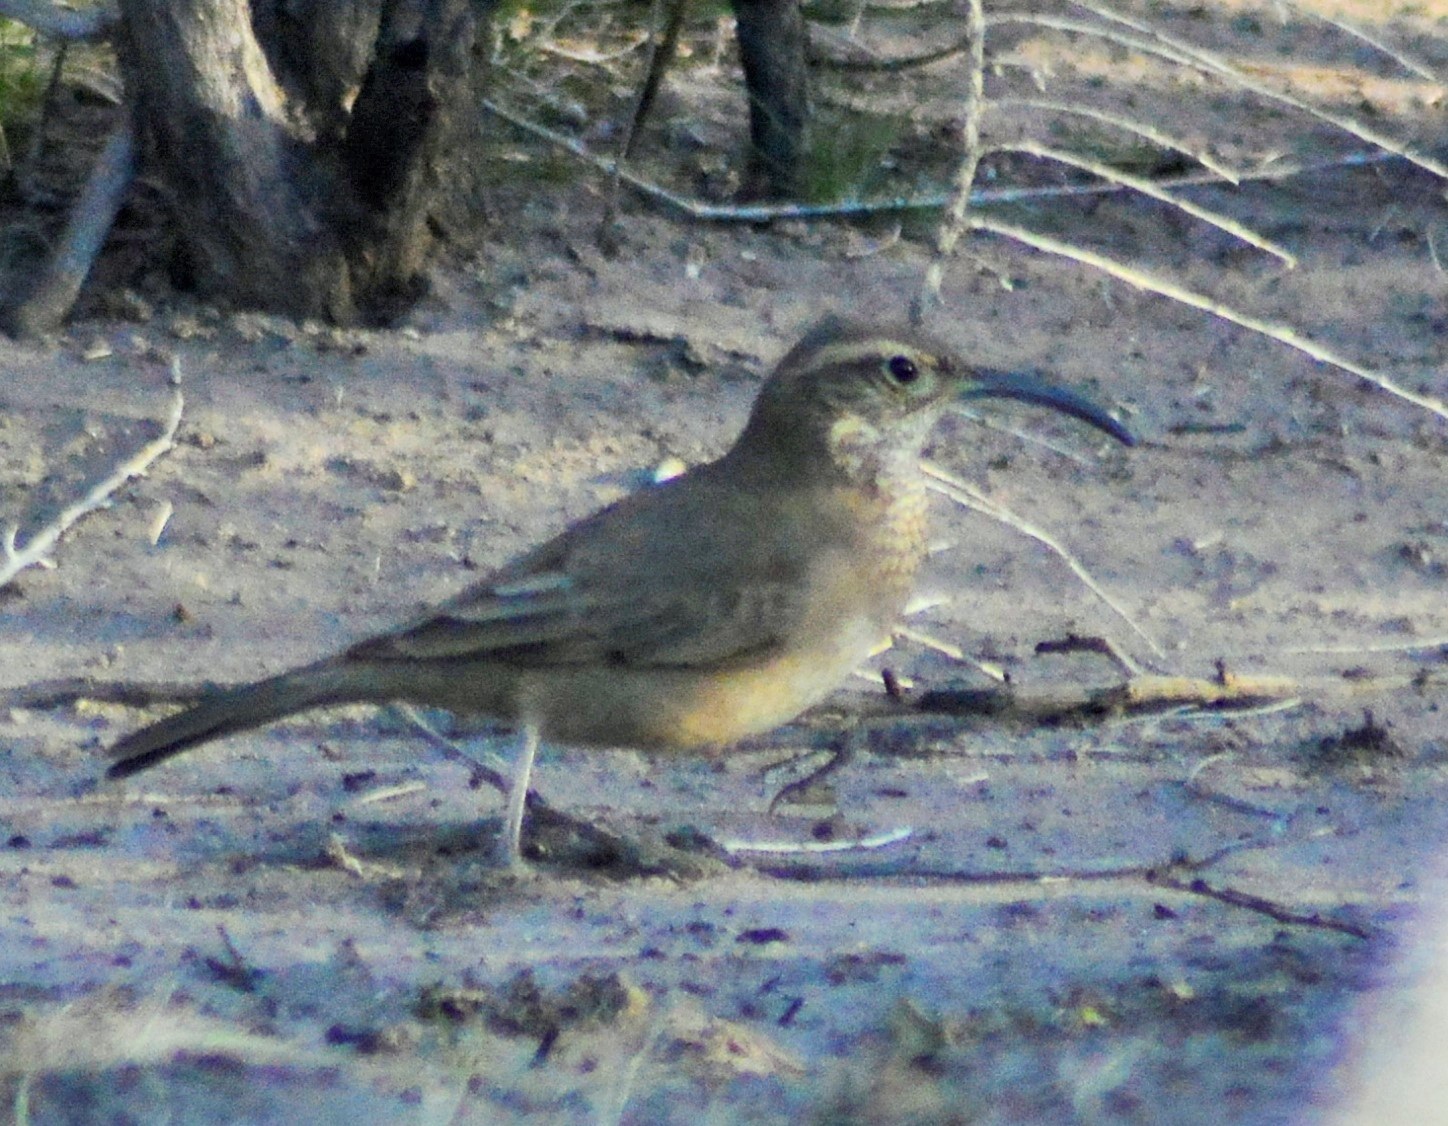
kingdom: Animalia
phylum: Chordata
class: Aves
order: Passeriformes
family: Furnariidae
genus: Upucerthia
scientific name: Upucerthia dumetaria
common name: Scale-throated earthcreeper
